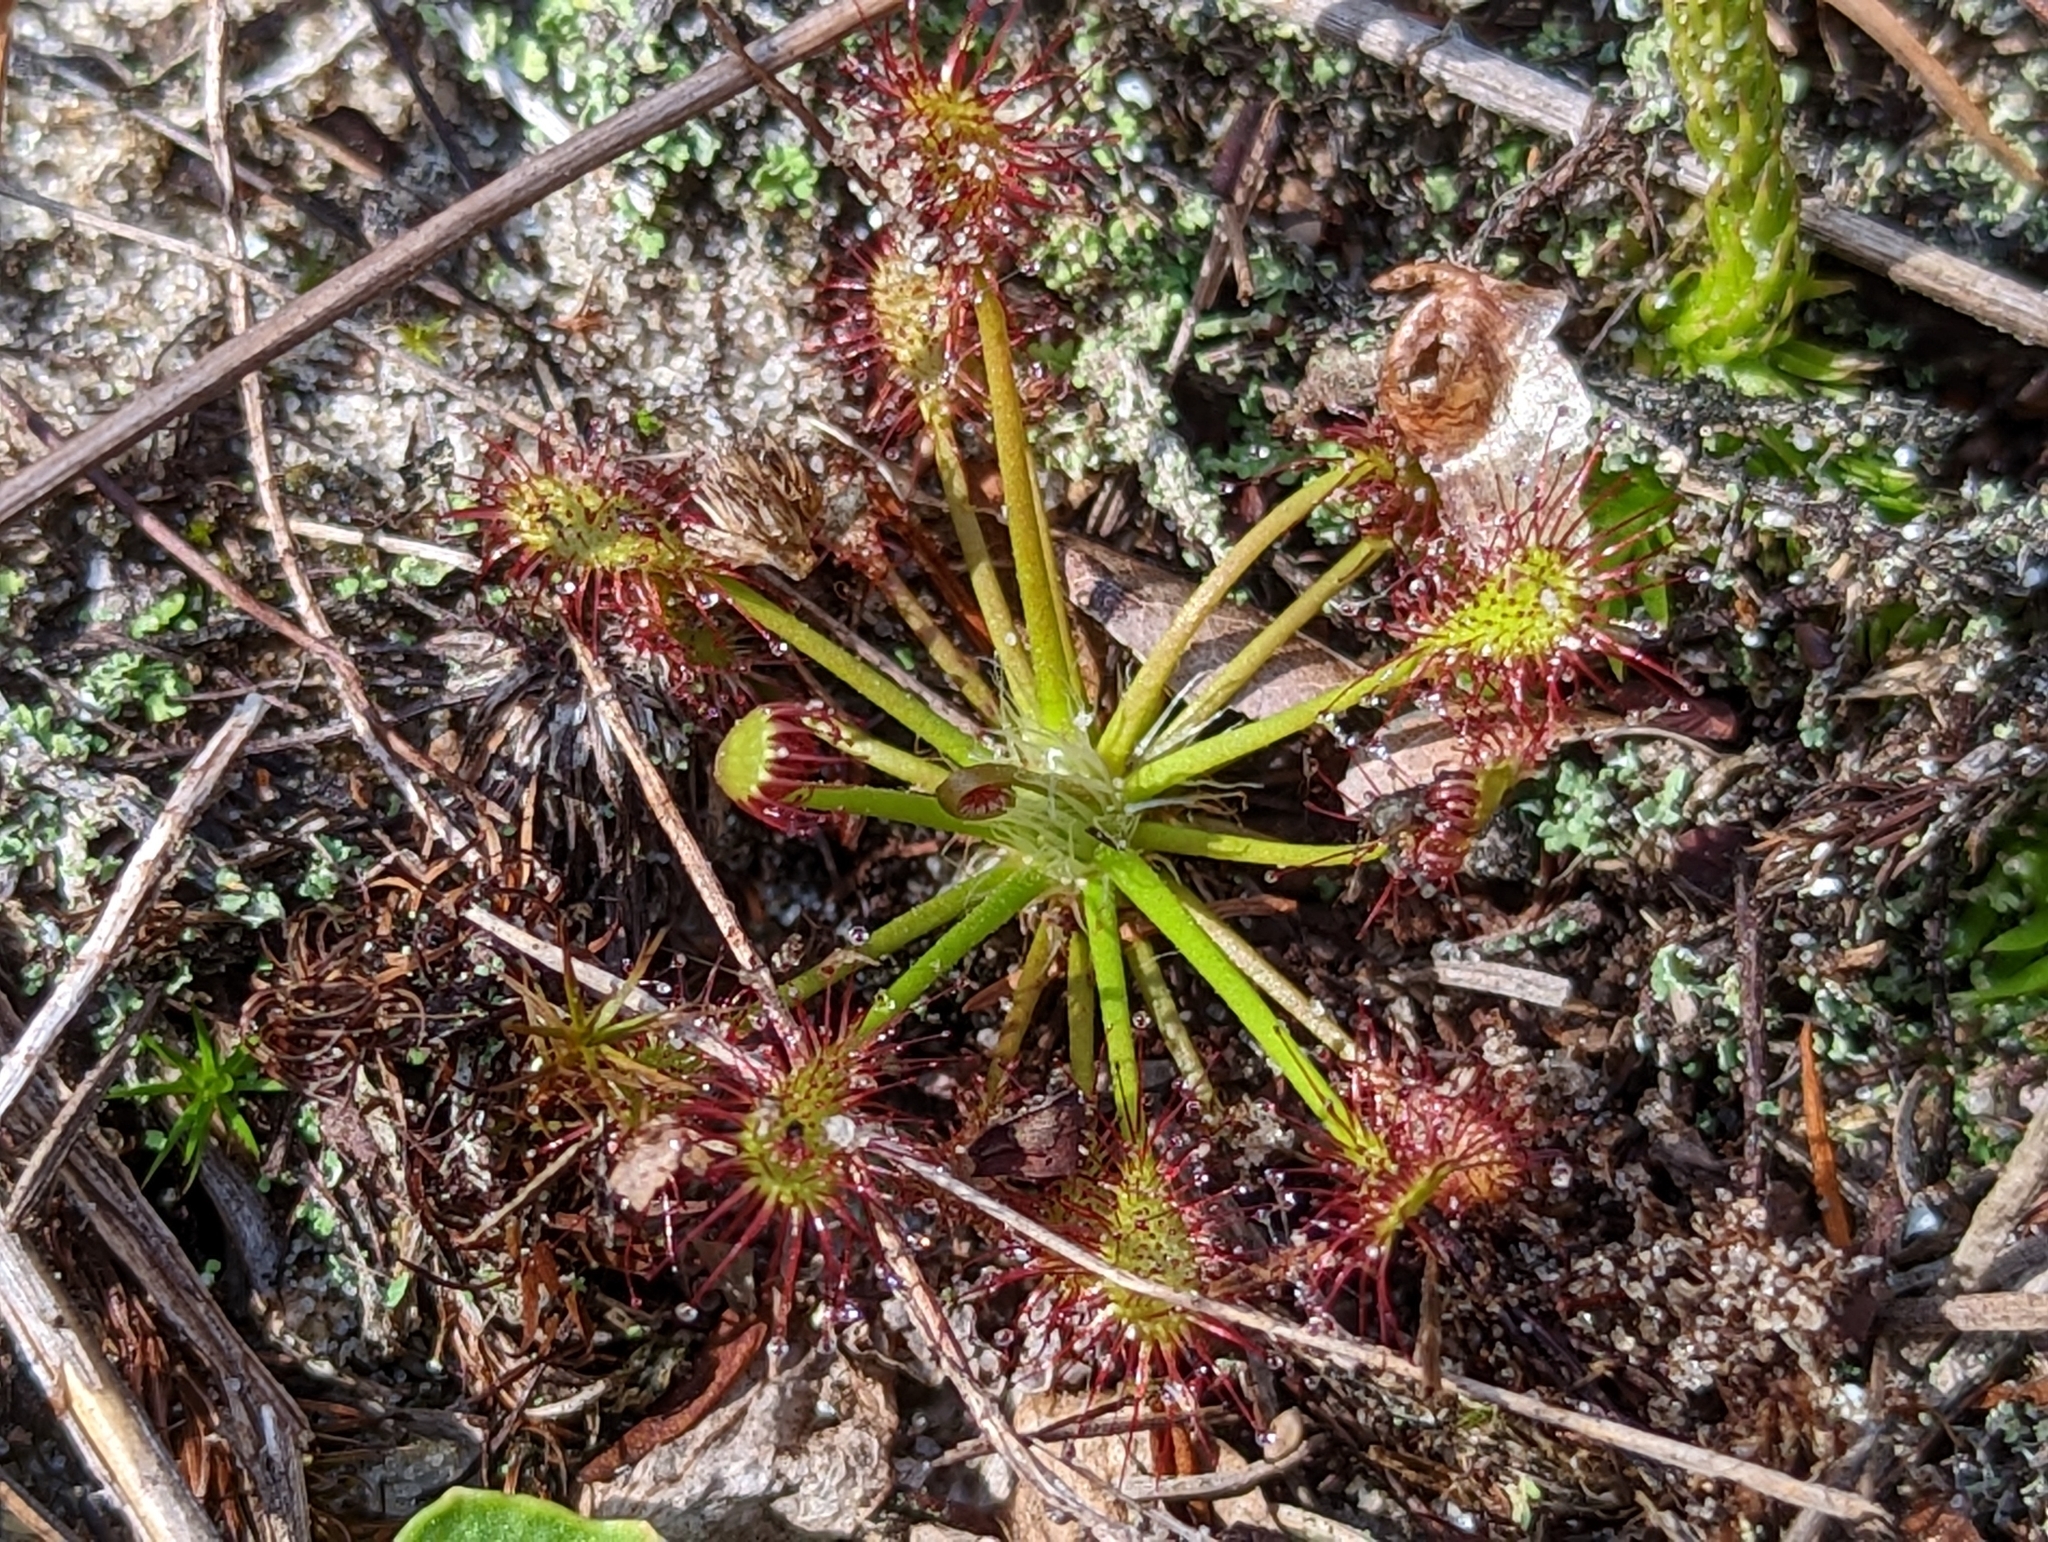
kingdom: Plantae
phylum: Tracheophyta
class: Magnoliopsida
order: Caryophyllales
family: Droseraceae
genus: Drosera
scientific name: Drosera intermedia
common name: Oblong-leaved sundew
